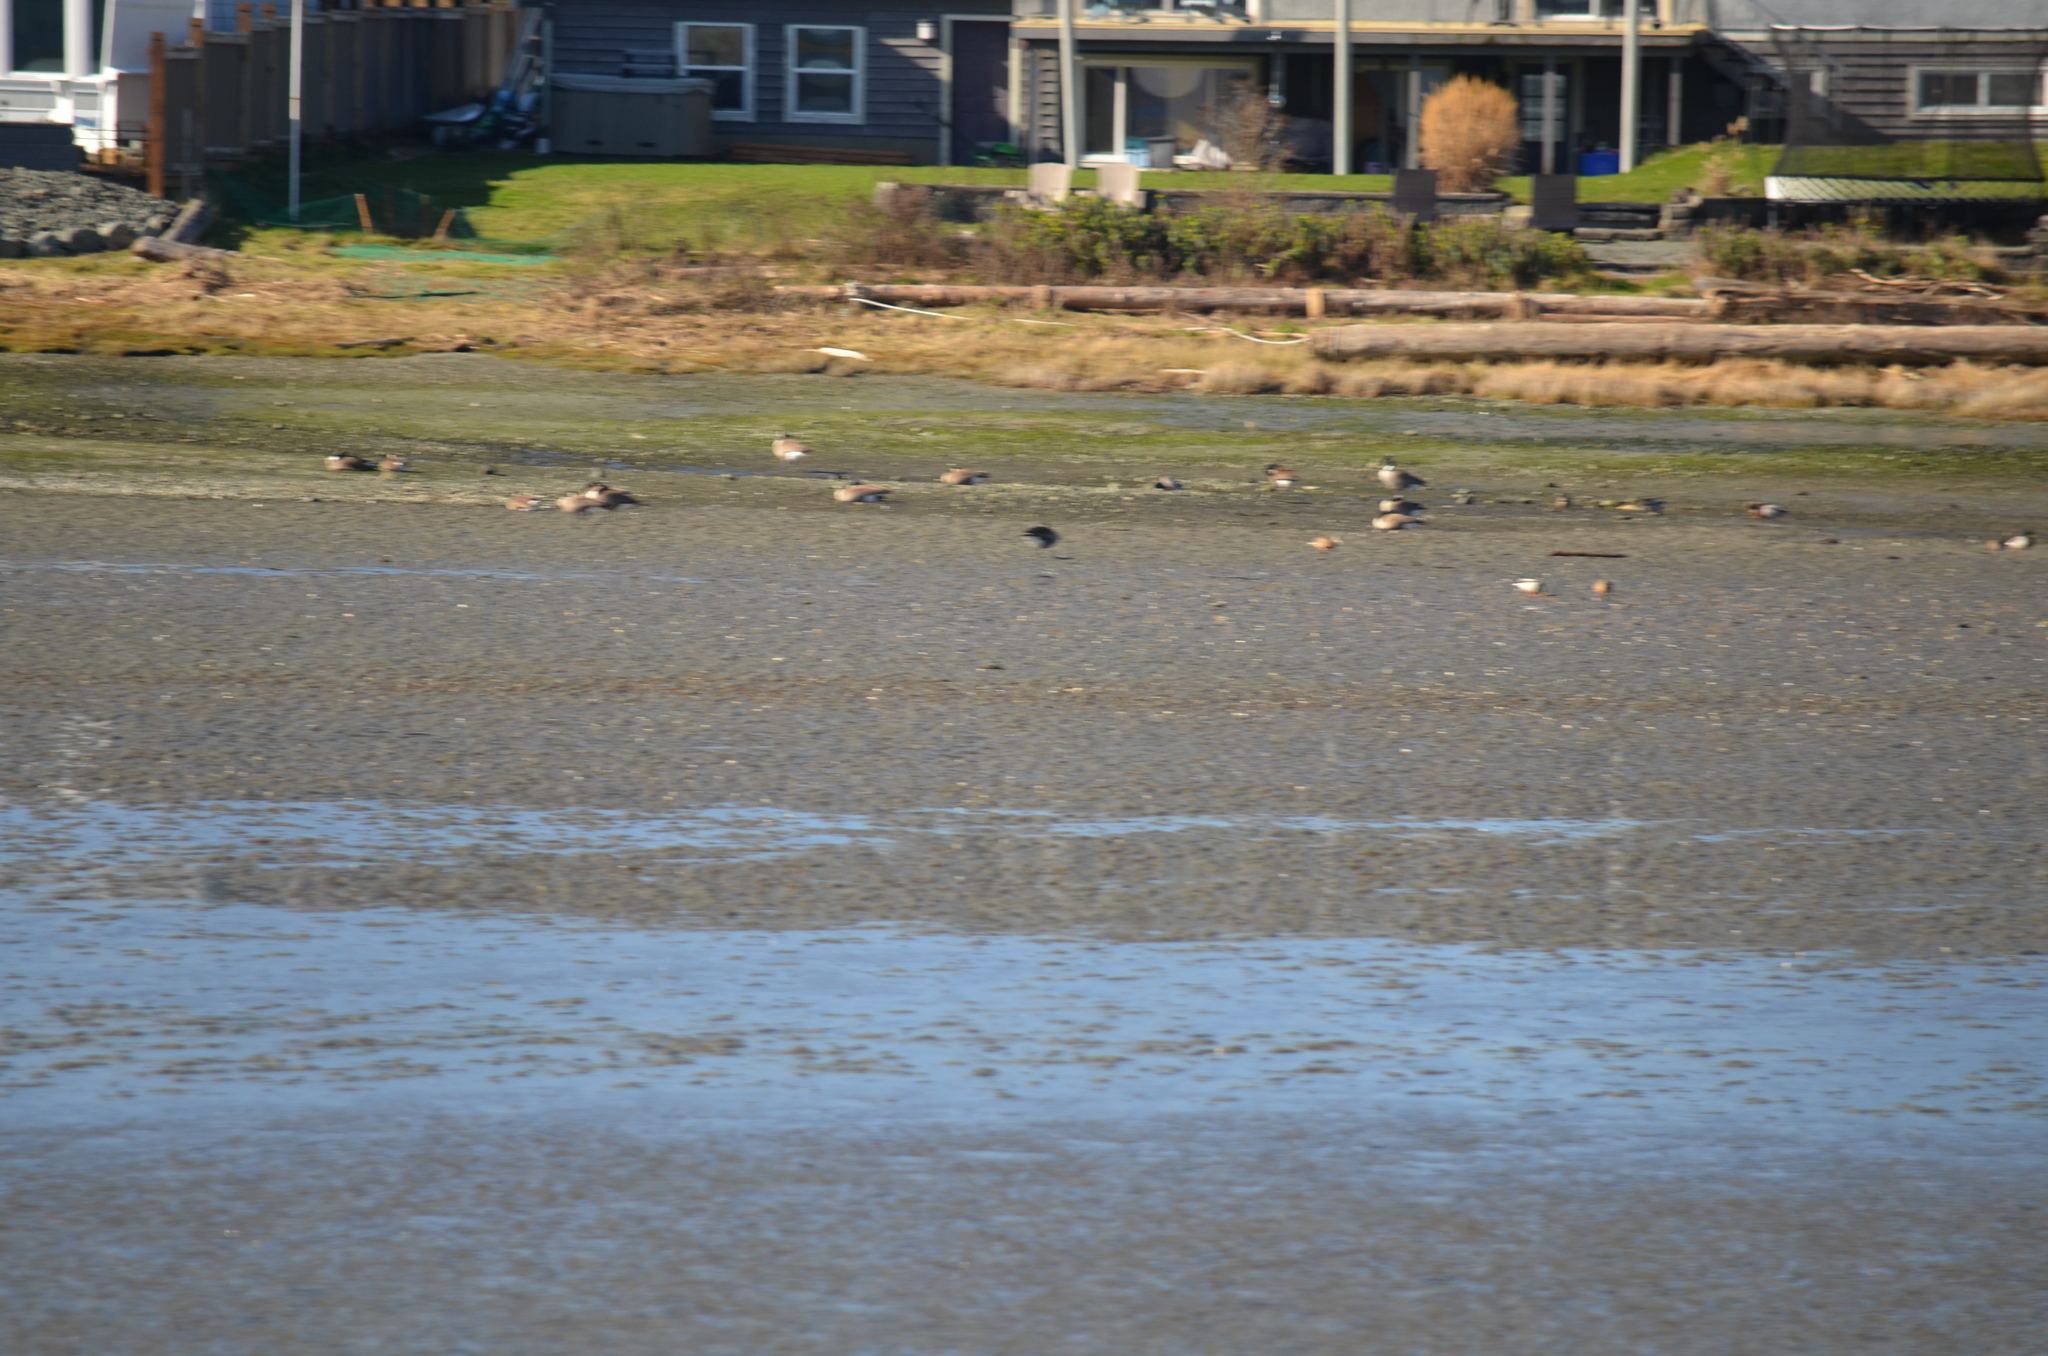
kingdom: Animalia
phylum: Chordata
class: Aves
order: Anseriformes
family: Anatidae
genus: Branta
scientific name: Branta canadensis
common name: Canada goose
